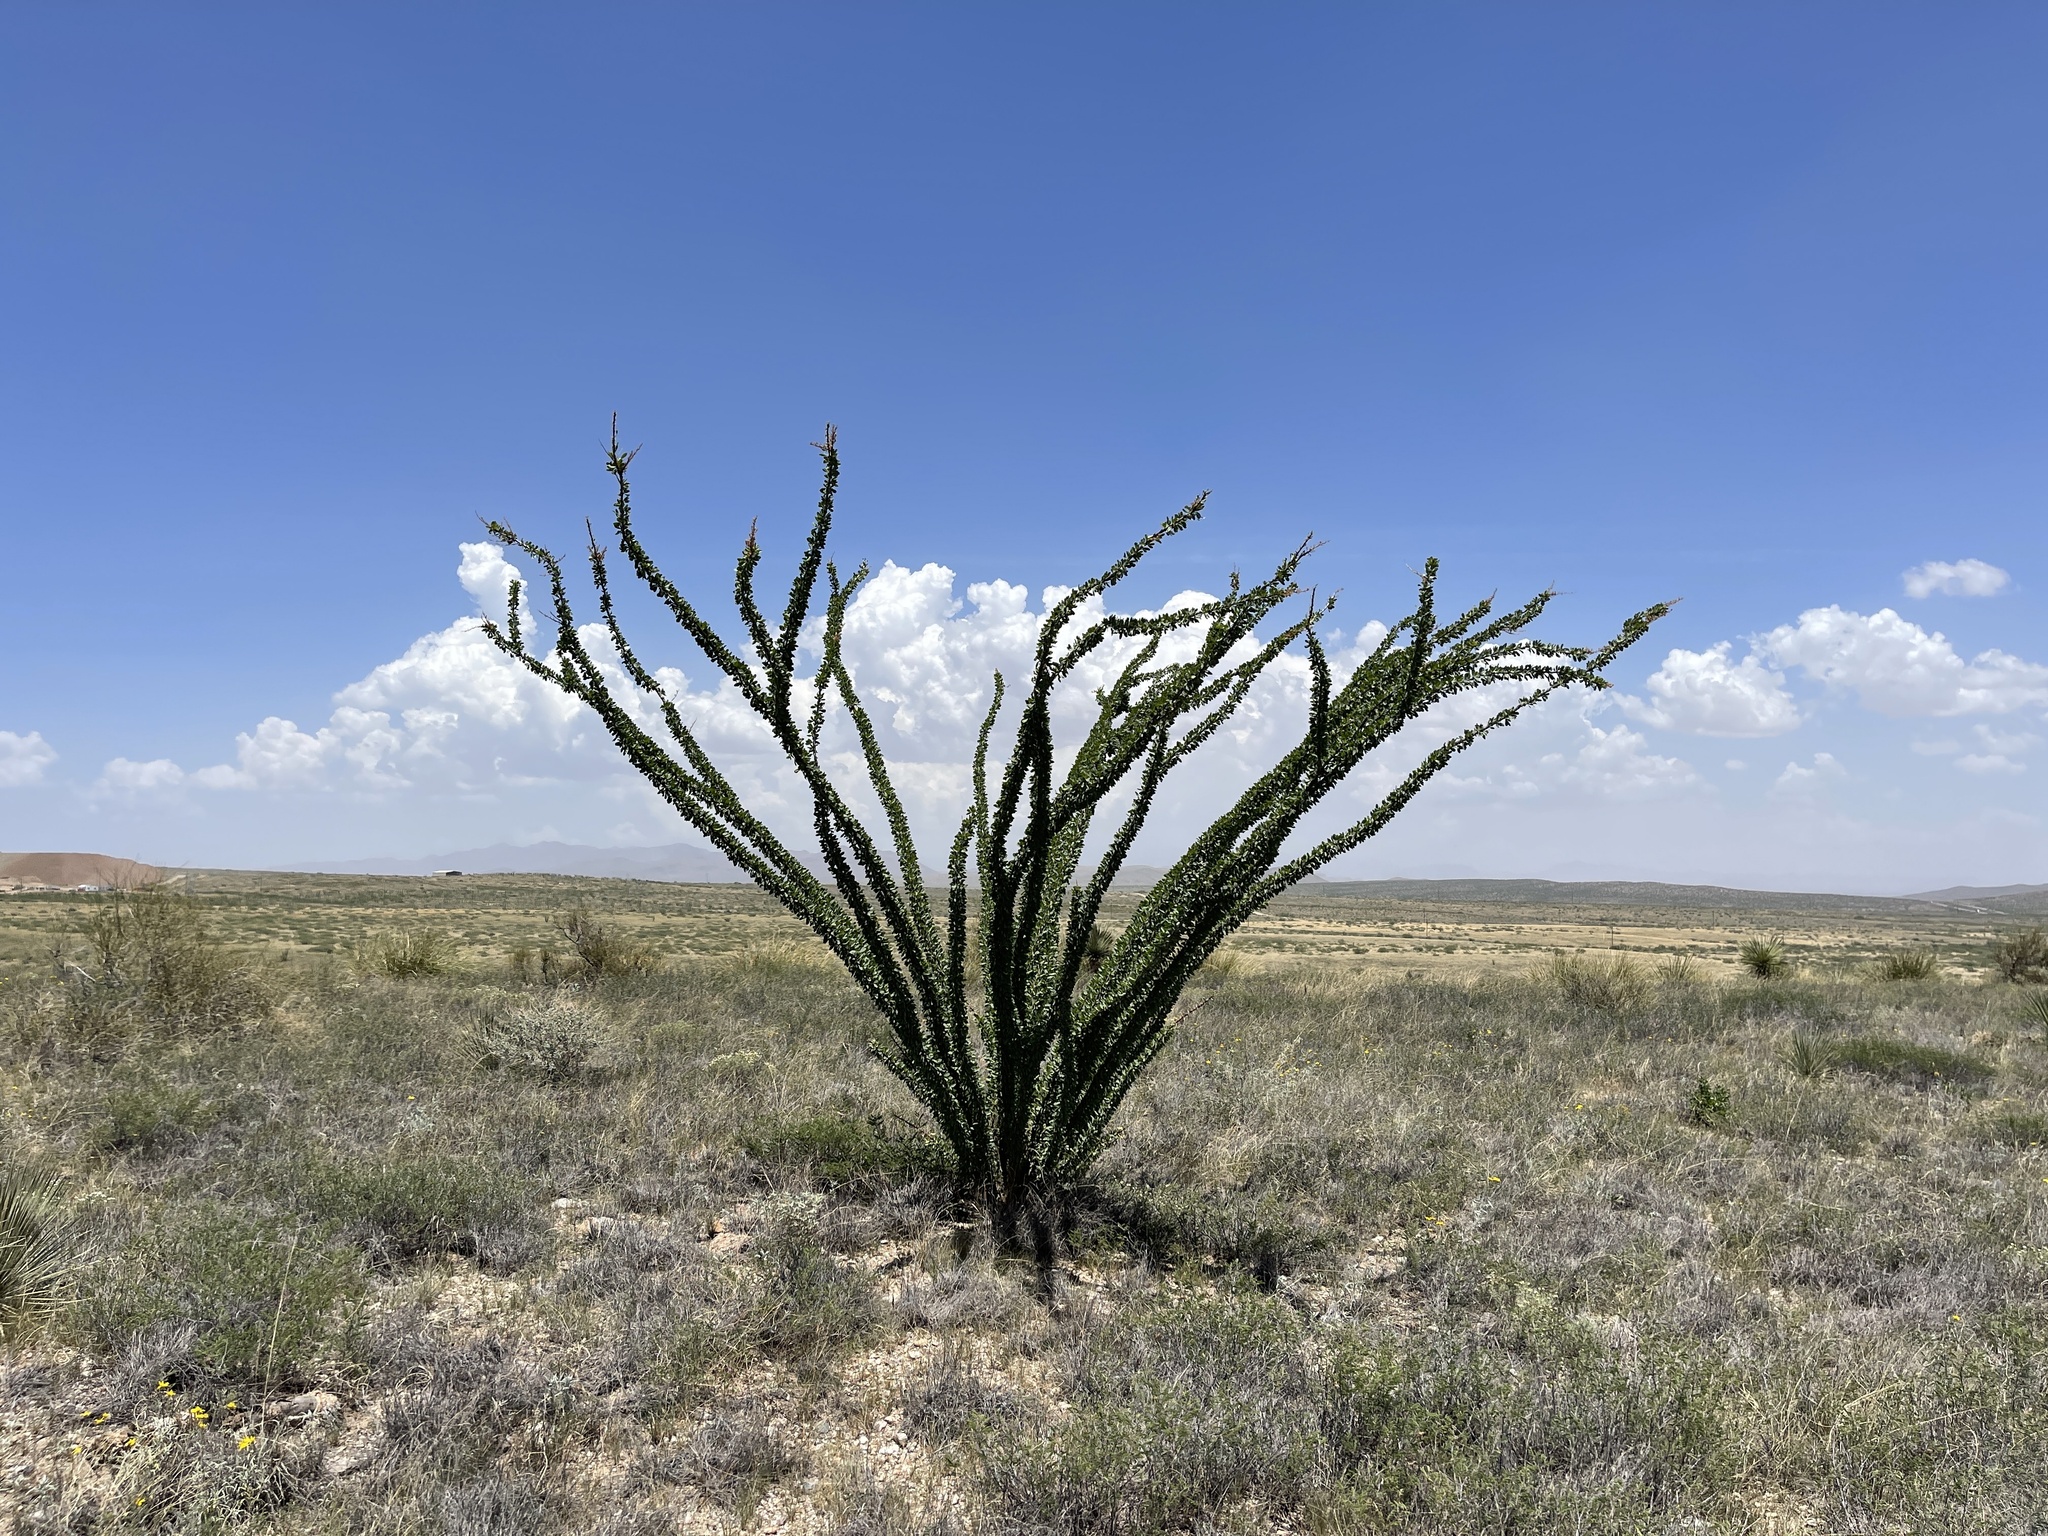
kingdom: Plantae
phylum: Tracheophyta
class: Magnoliopsida
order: Ericales
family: Fouquieriaceae
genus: Fouquieria
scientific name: Fouquieria splendens
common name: Vine-cactus
